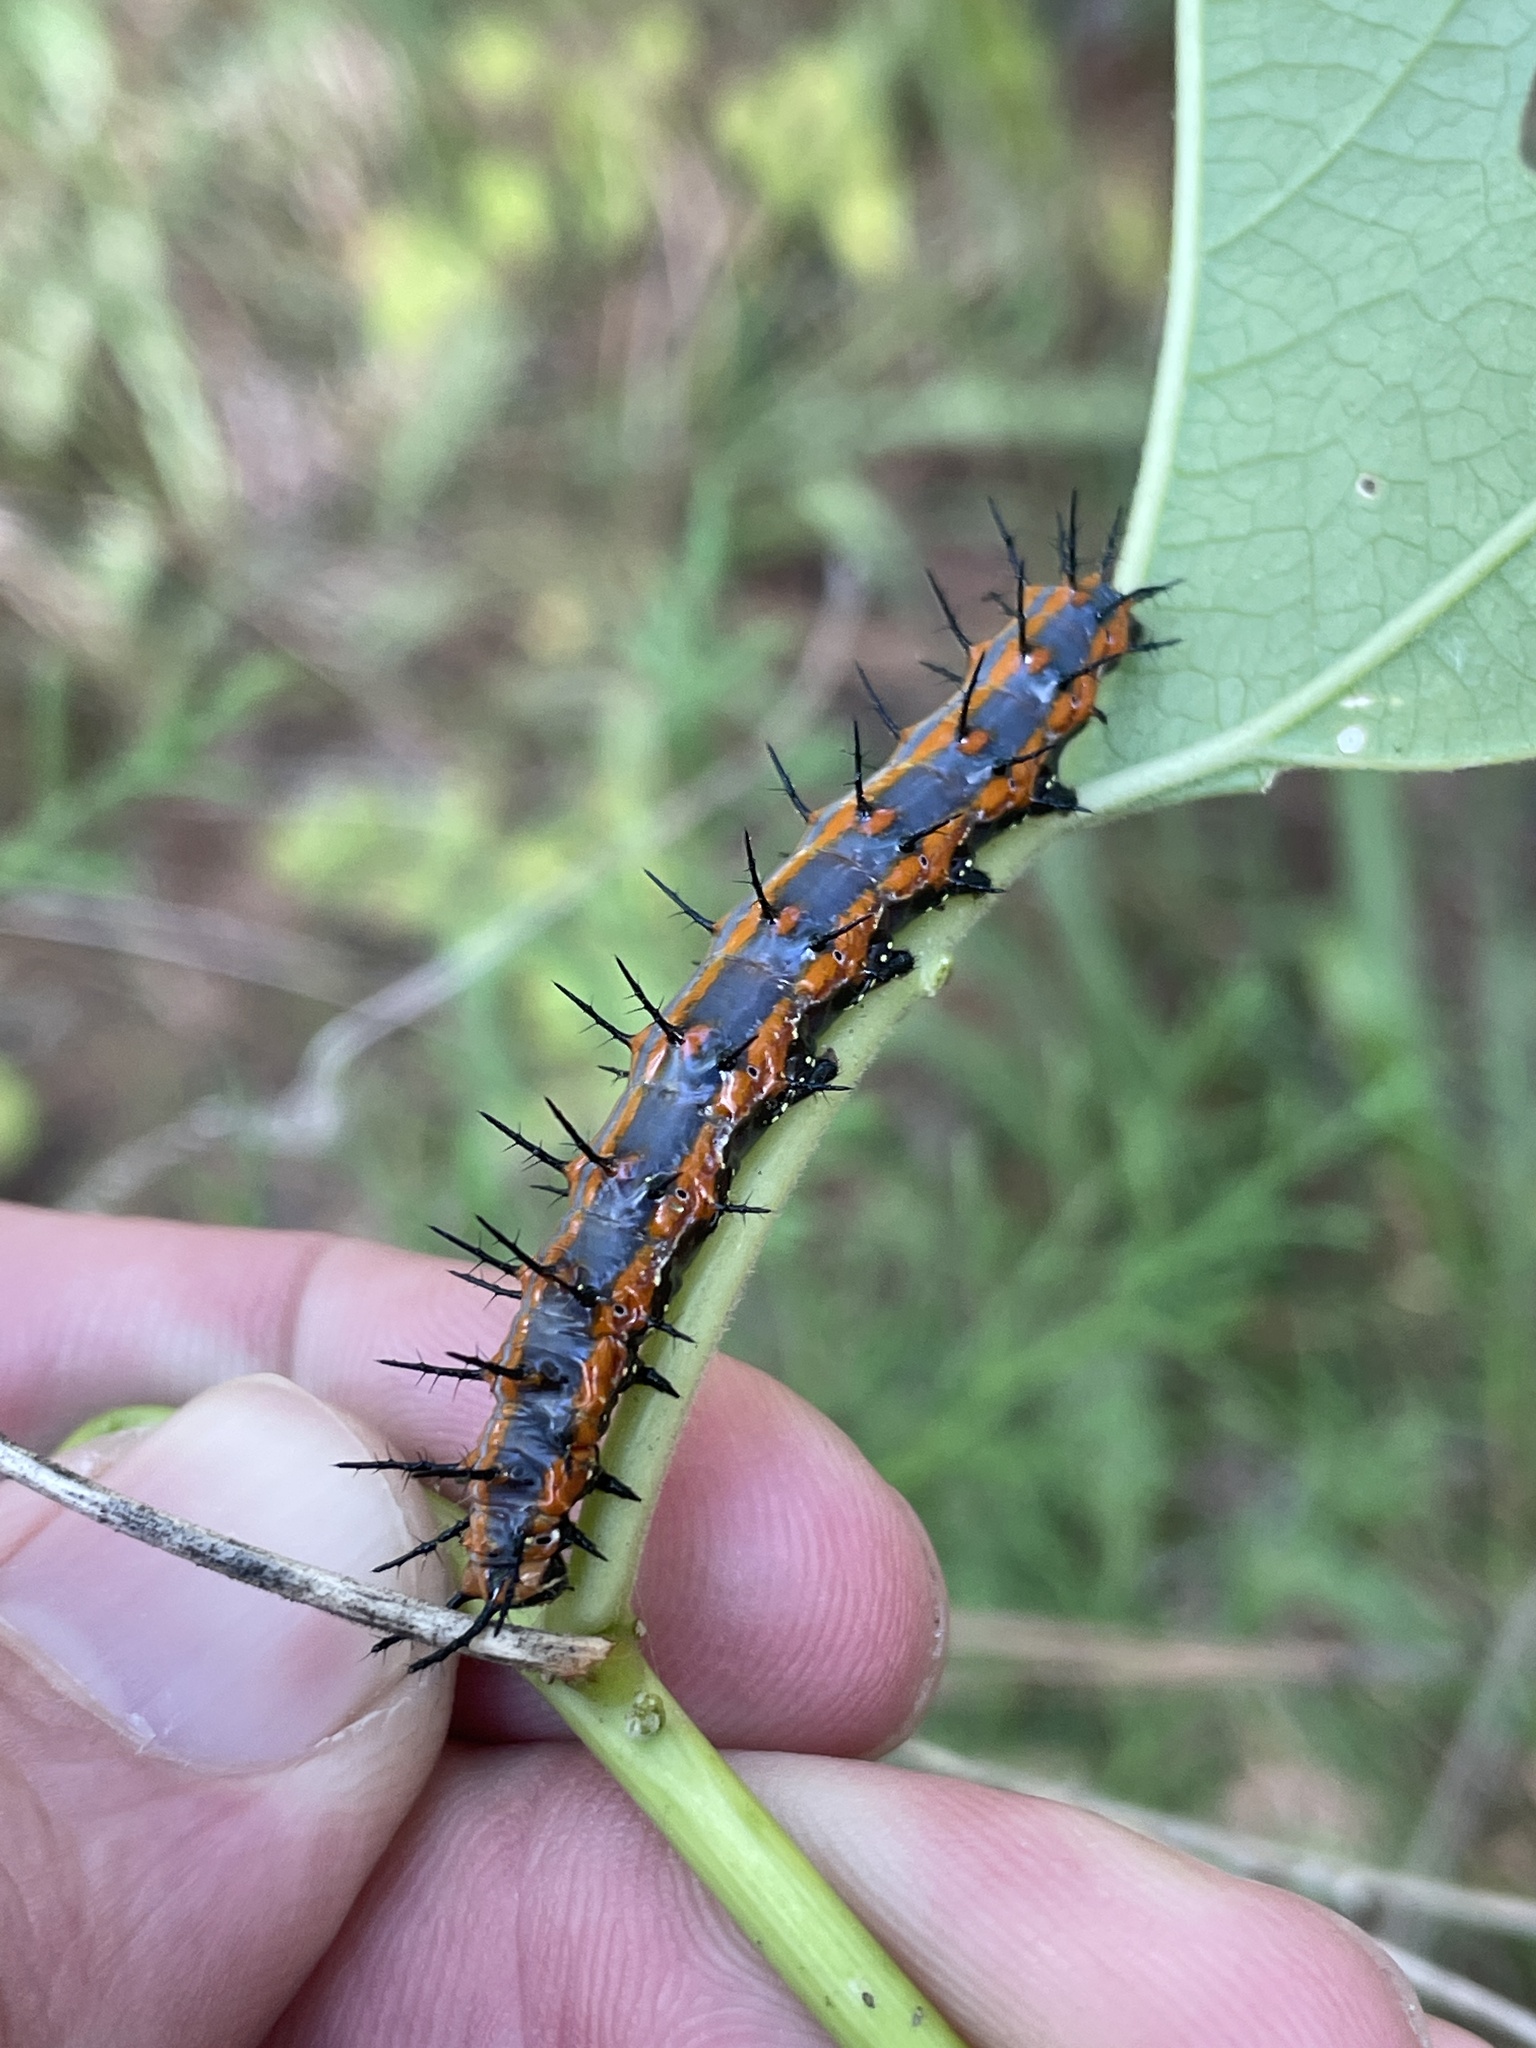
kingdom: Animalia
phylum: Arthropoda
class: Insecta
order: Lepidoptera
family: Nymphalidae
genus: Dione
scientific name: Dione vanillae
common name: Gulf fritillary
